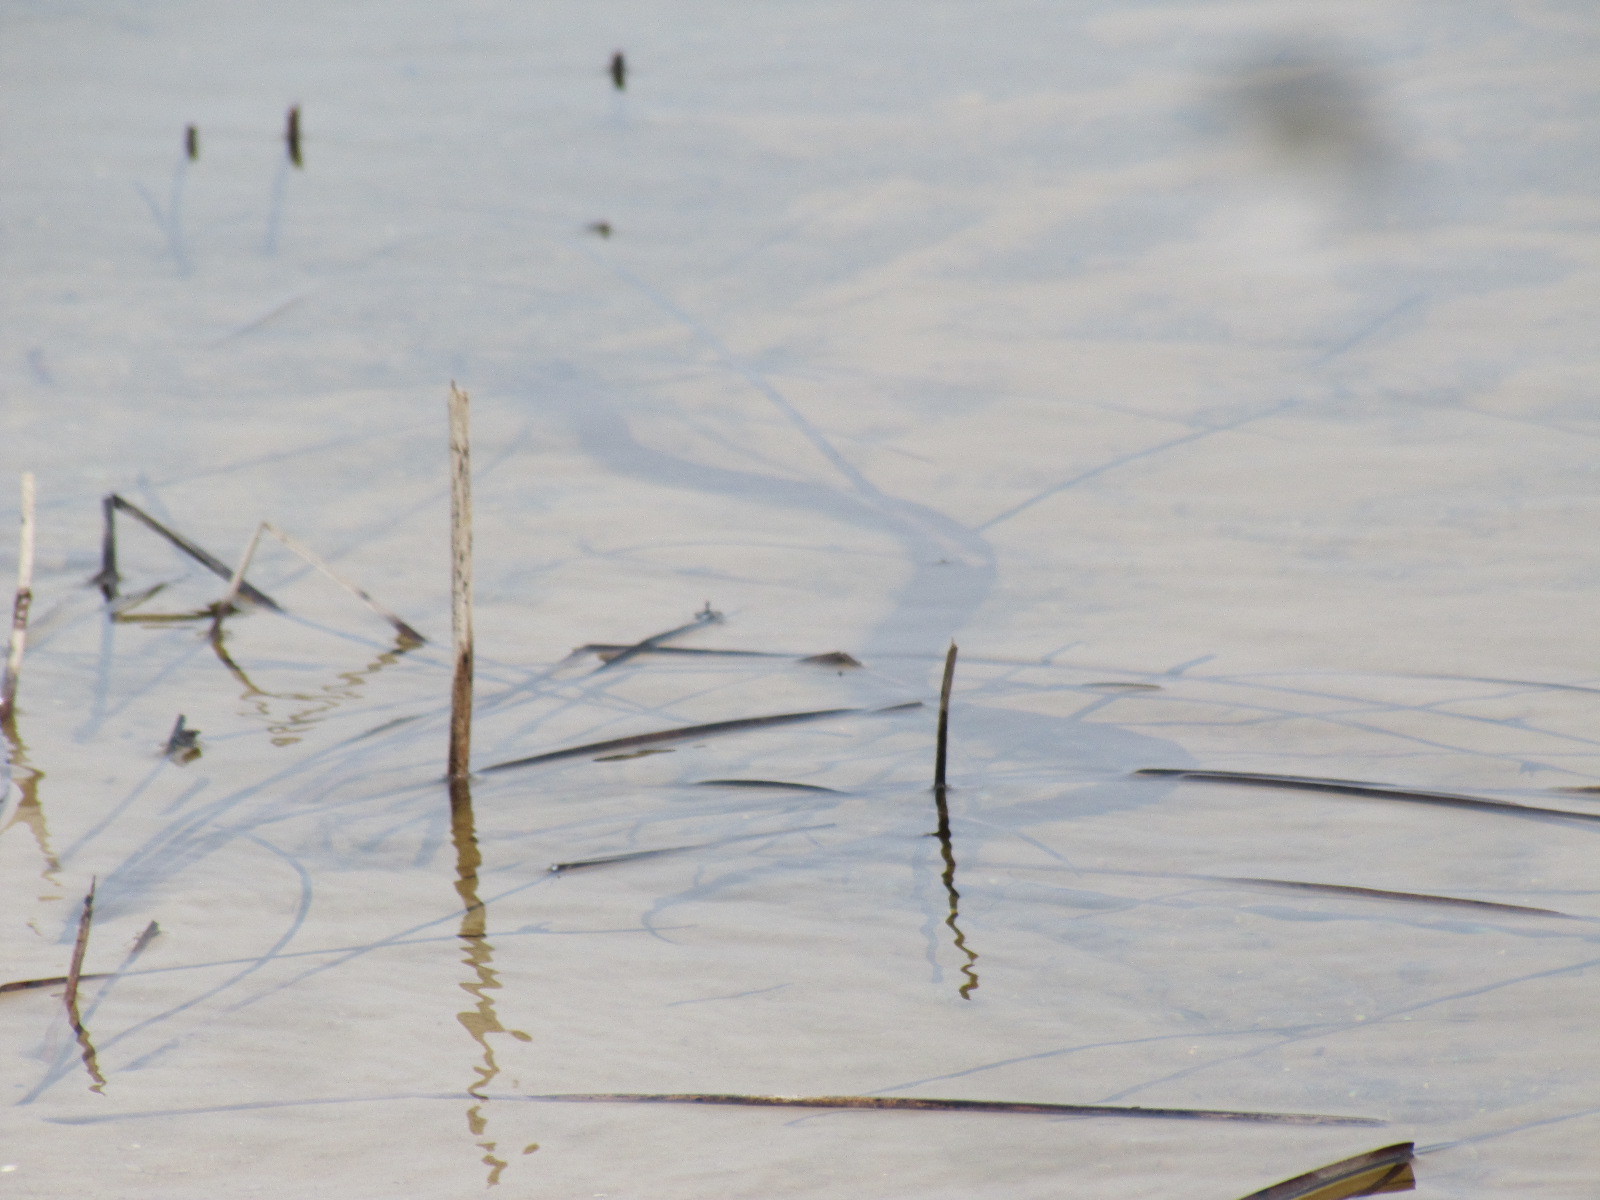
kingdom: Animalia
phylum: Chordata
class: Squamata
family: Colubridae
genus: Nerodia
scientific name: Nerodia sipedon
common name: Northern water snake
